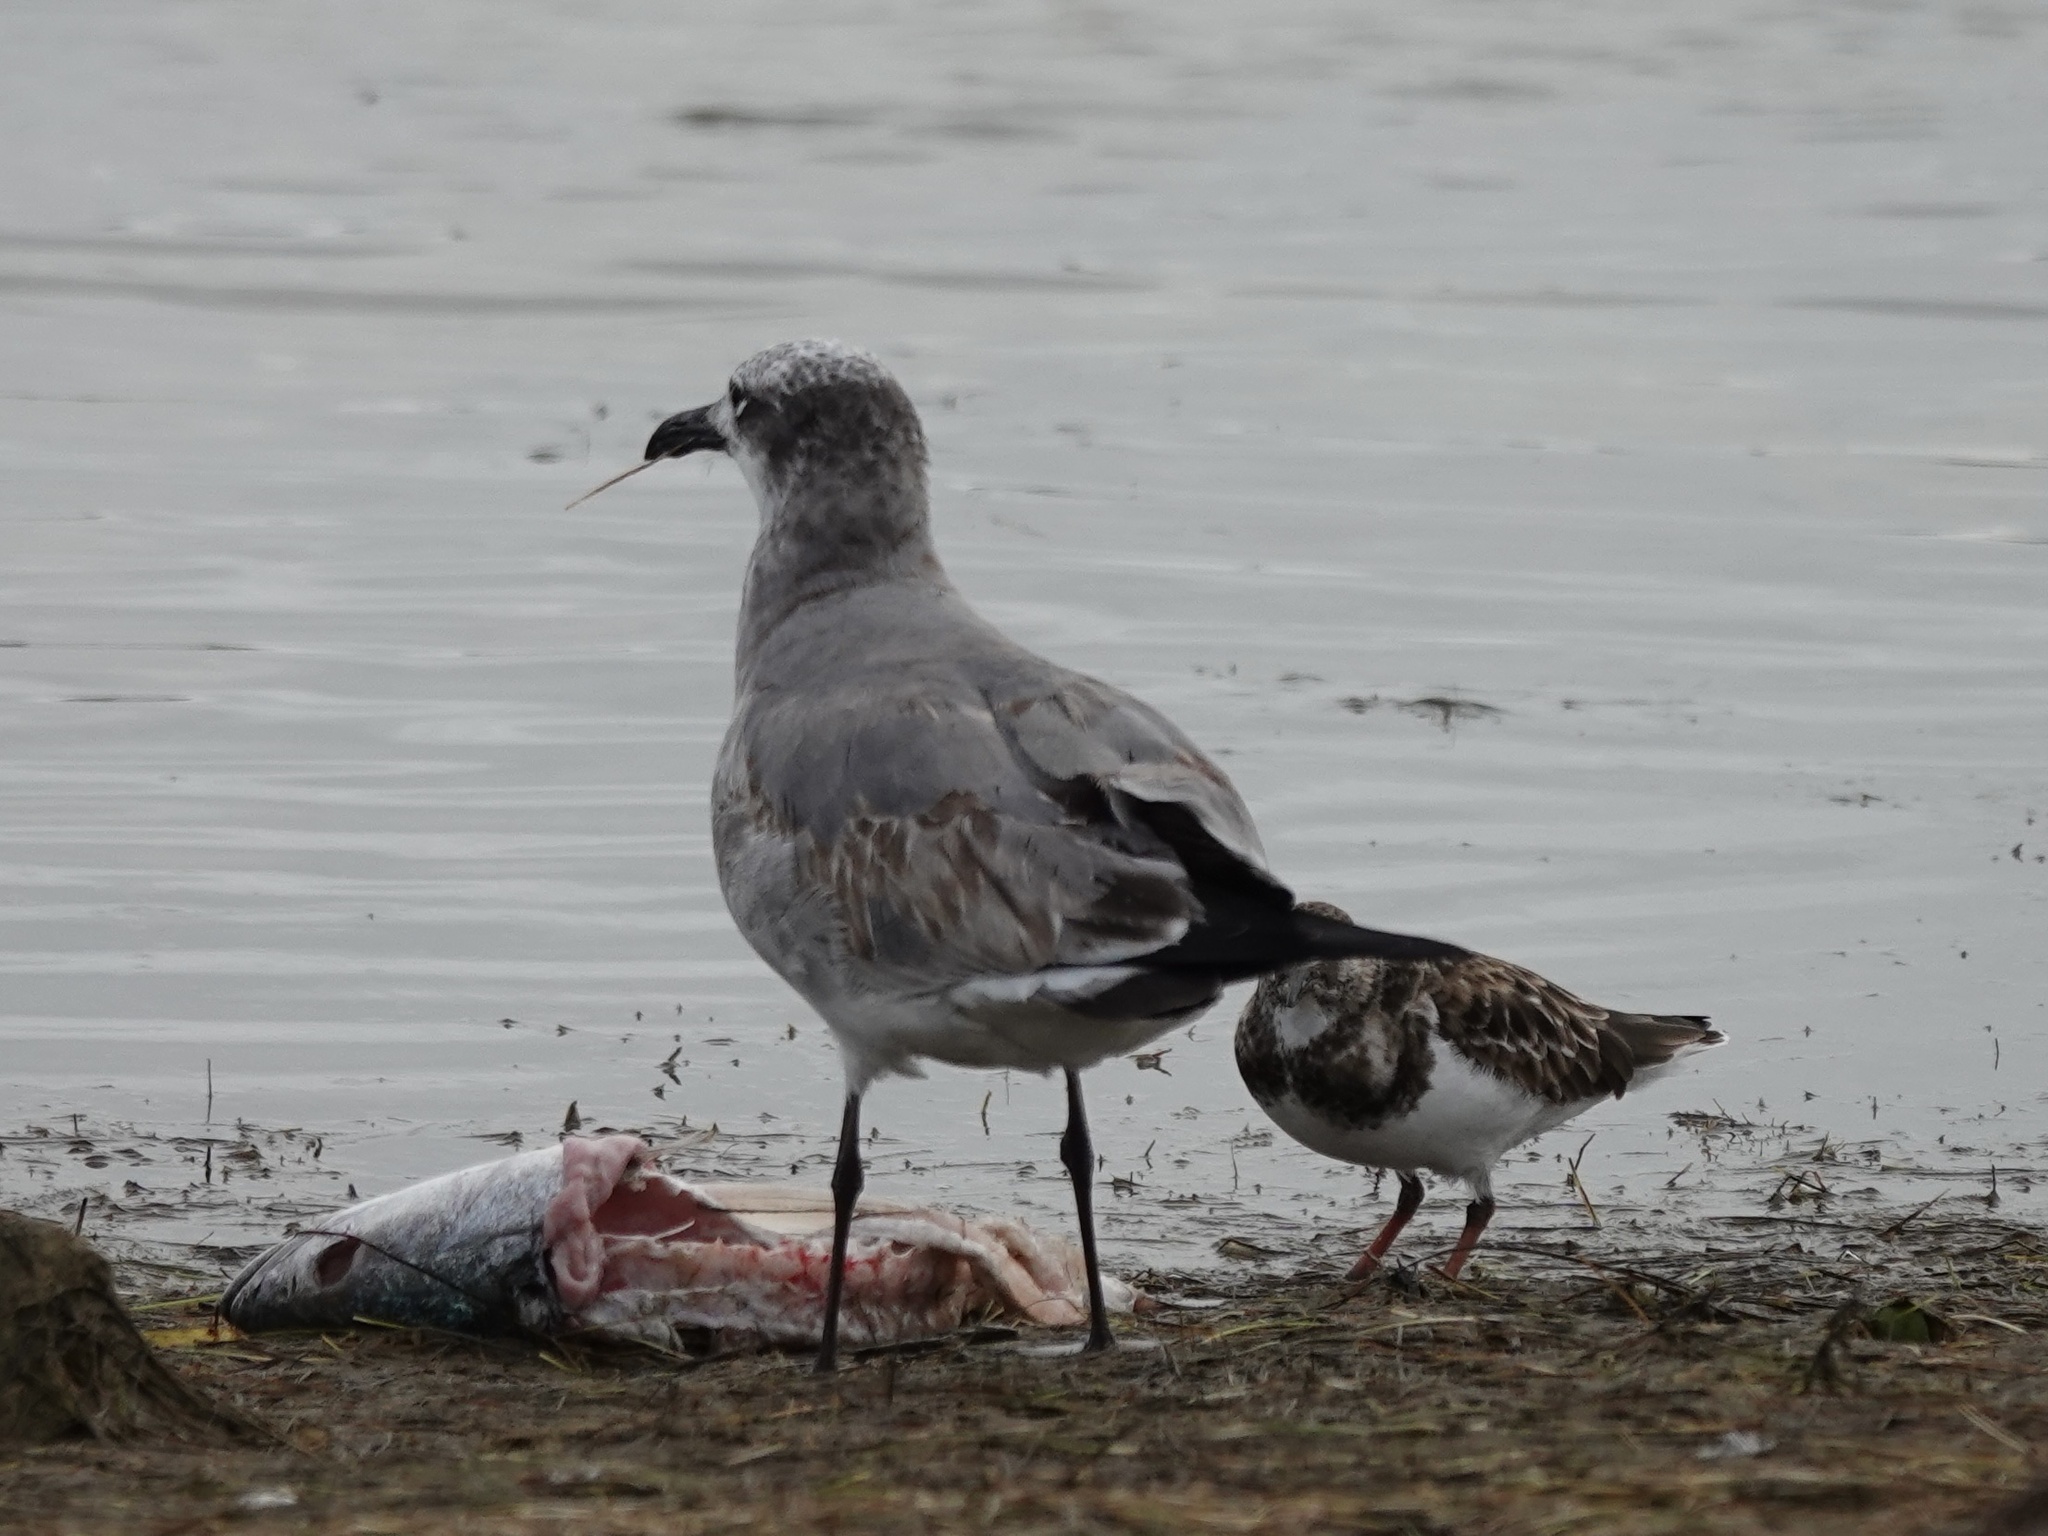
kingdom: Animalia
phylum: Chordata
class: Aves
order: Charadriiformes
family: Laridae
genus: Leucophaeus
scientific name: Leucophaeus atricilla
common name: Laughing gull
